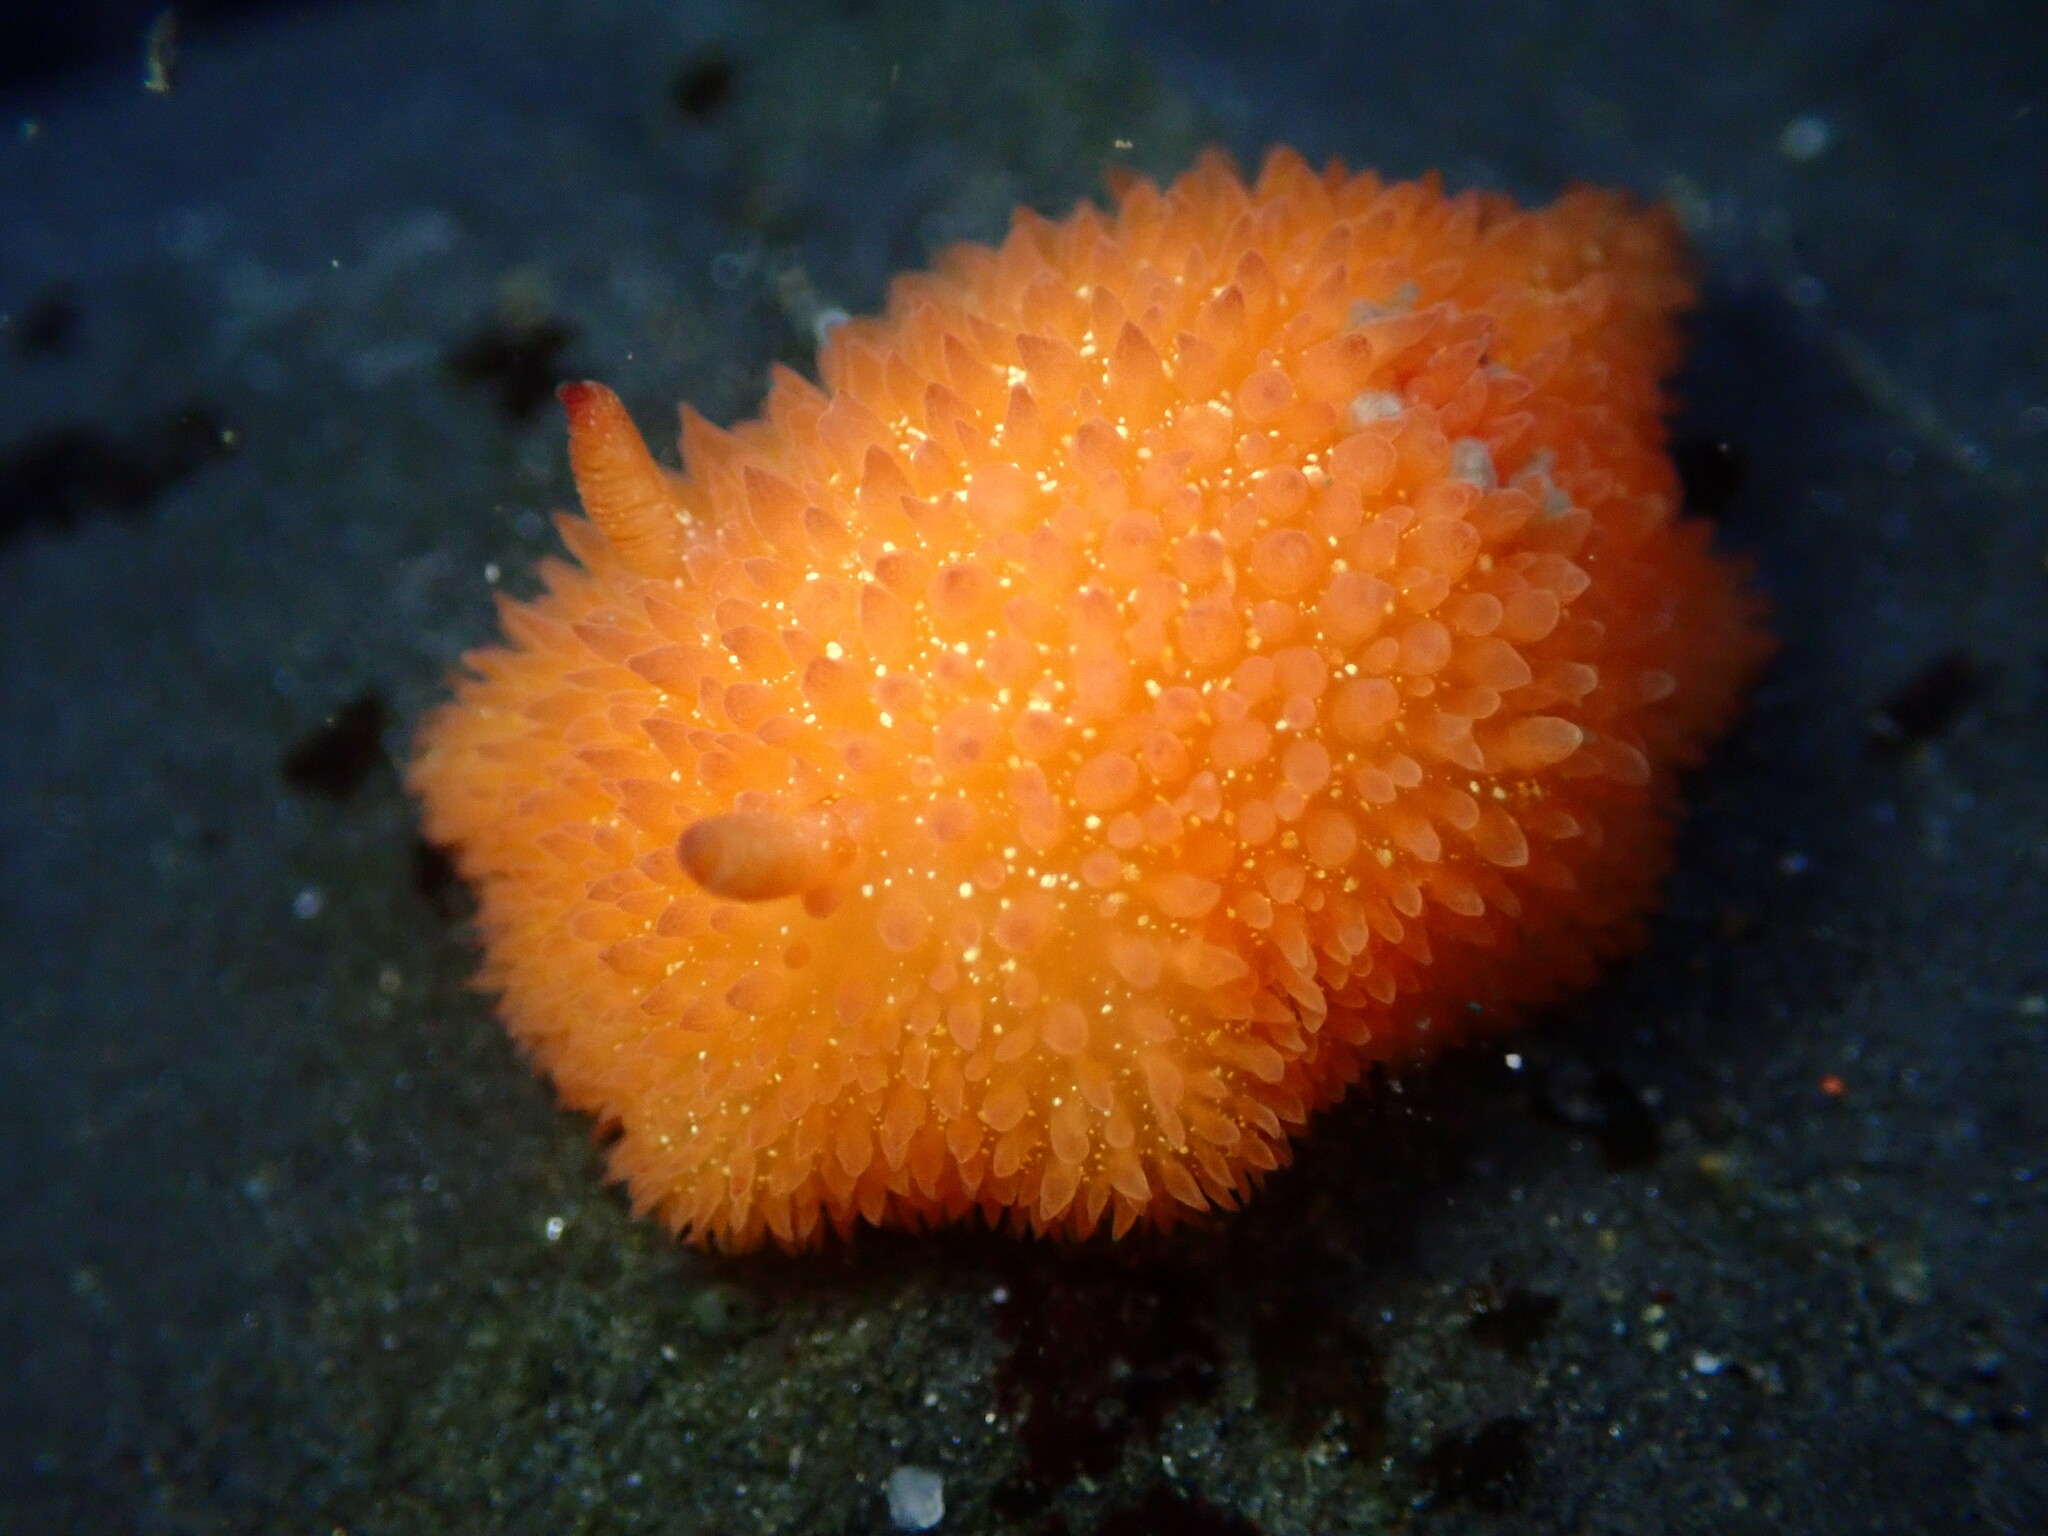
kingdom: Animalia
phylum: Mollusca
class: Gastropoda
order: Nudibranchia
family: Onchidorididae
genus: Acanthodoris
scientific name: Acanthodoris lutea
